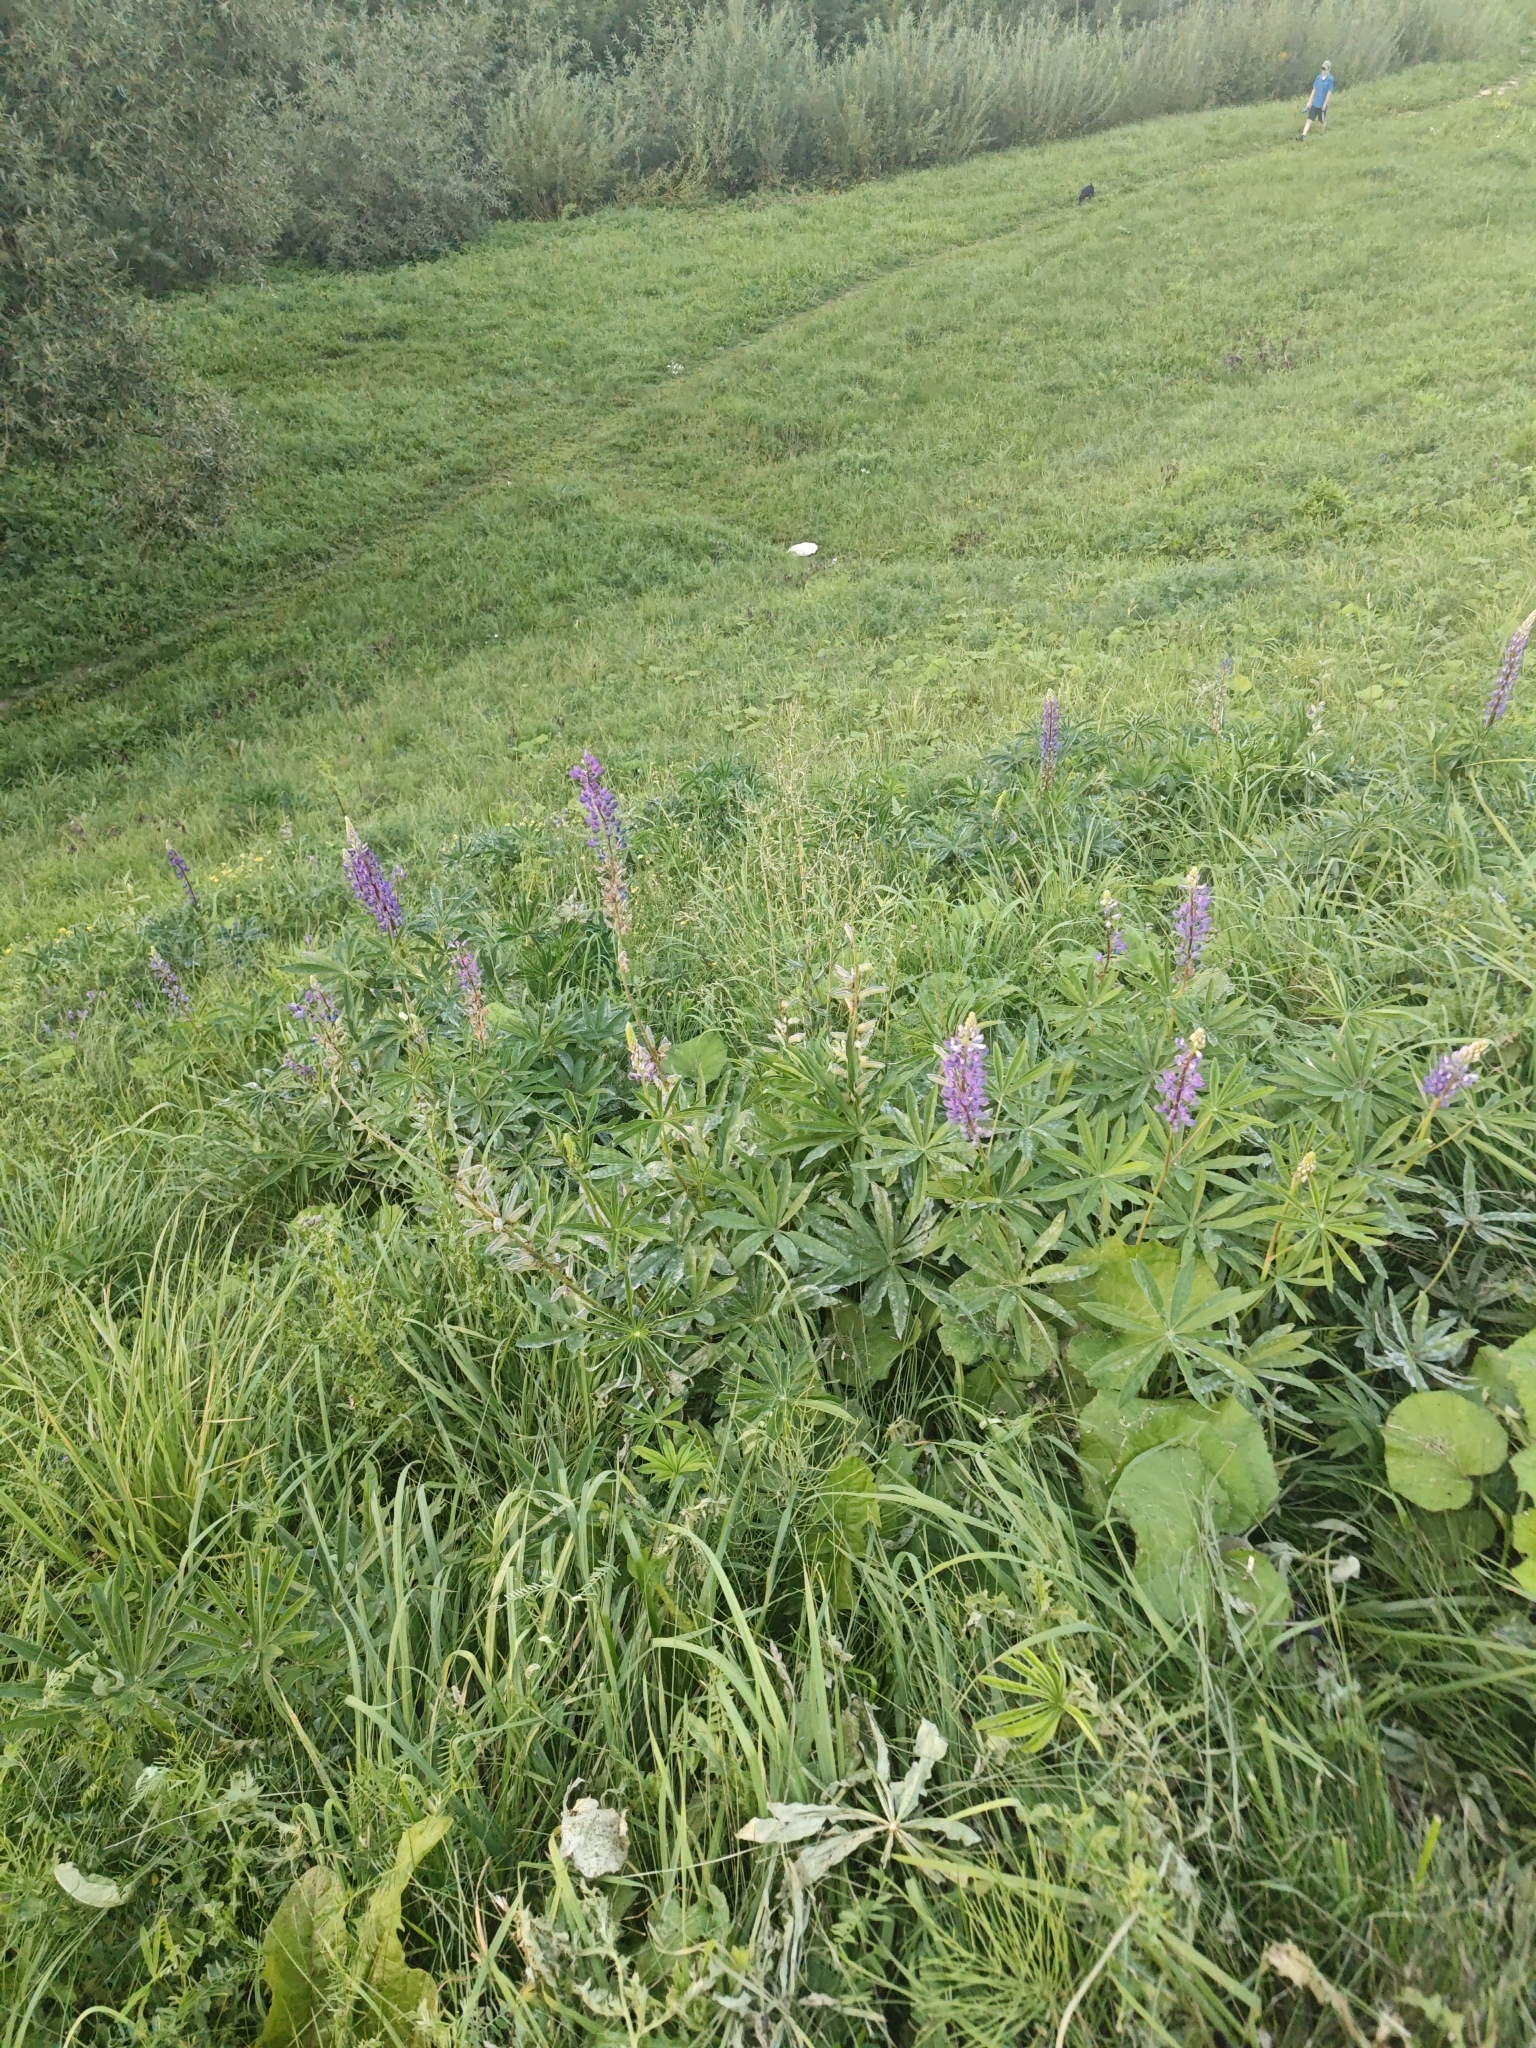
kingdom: Plantae
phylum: Tracheophyta
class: Magnoliopsida
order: Fabales
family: Fabaceae
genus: Lupinus
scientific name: Lupinus polyphyllus
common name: Garden lupin
